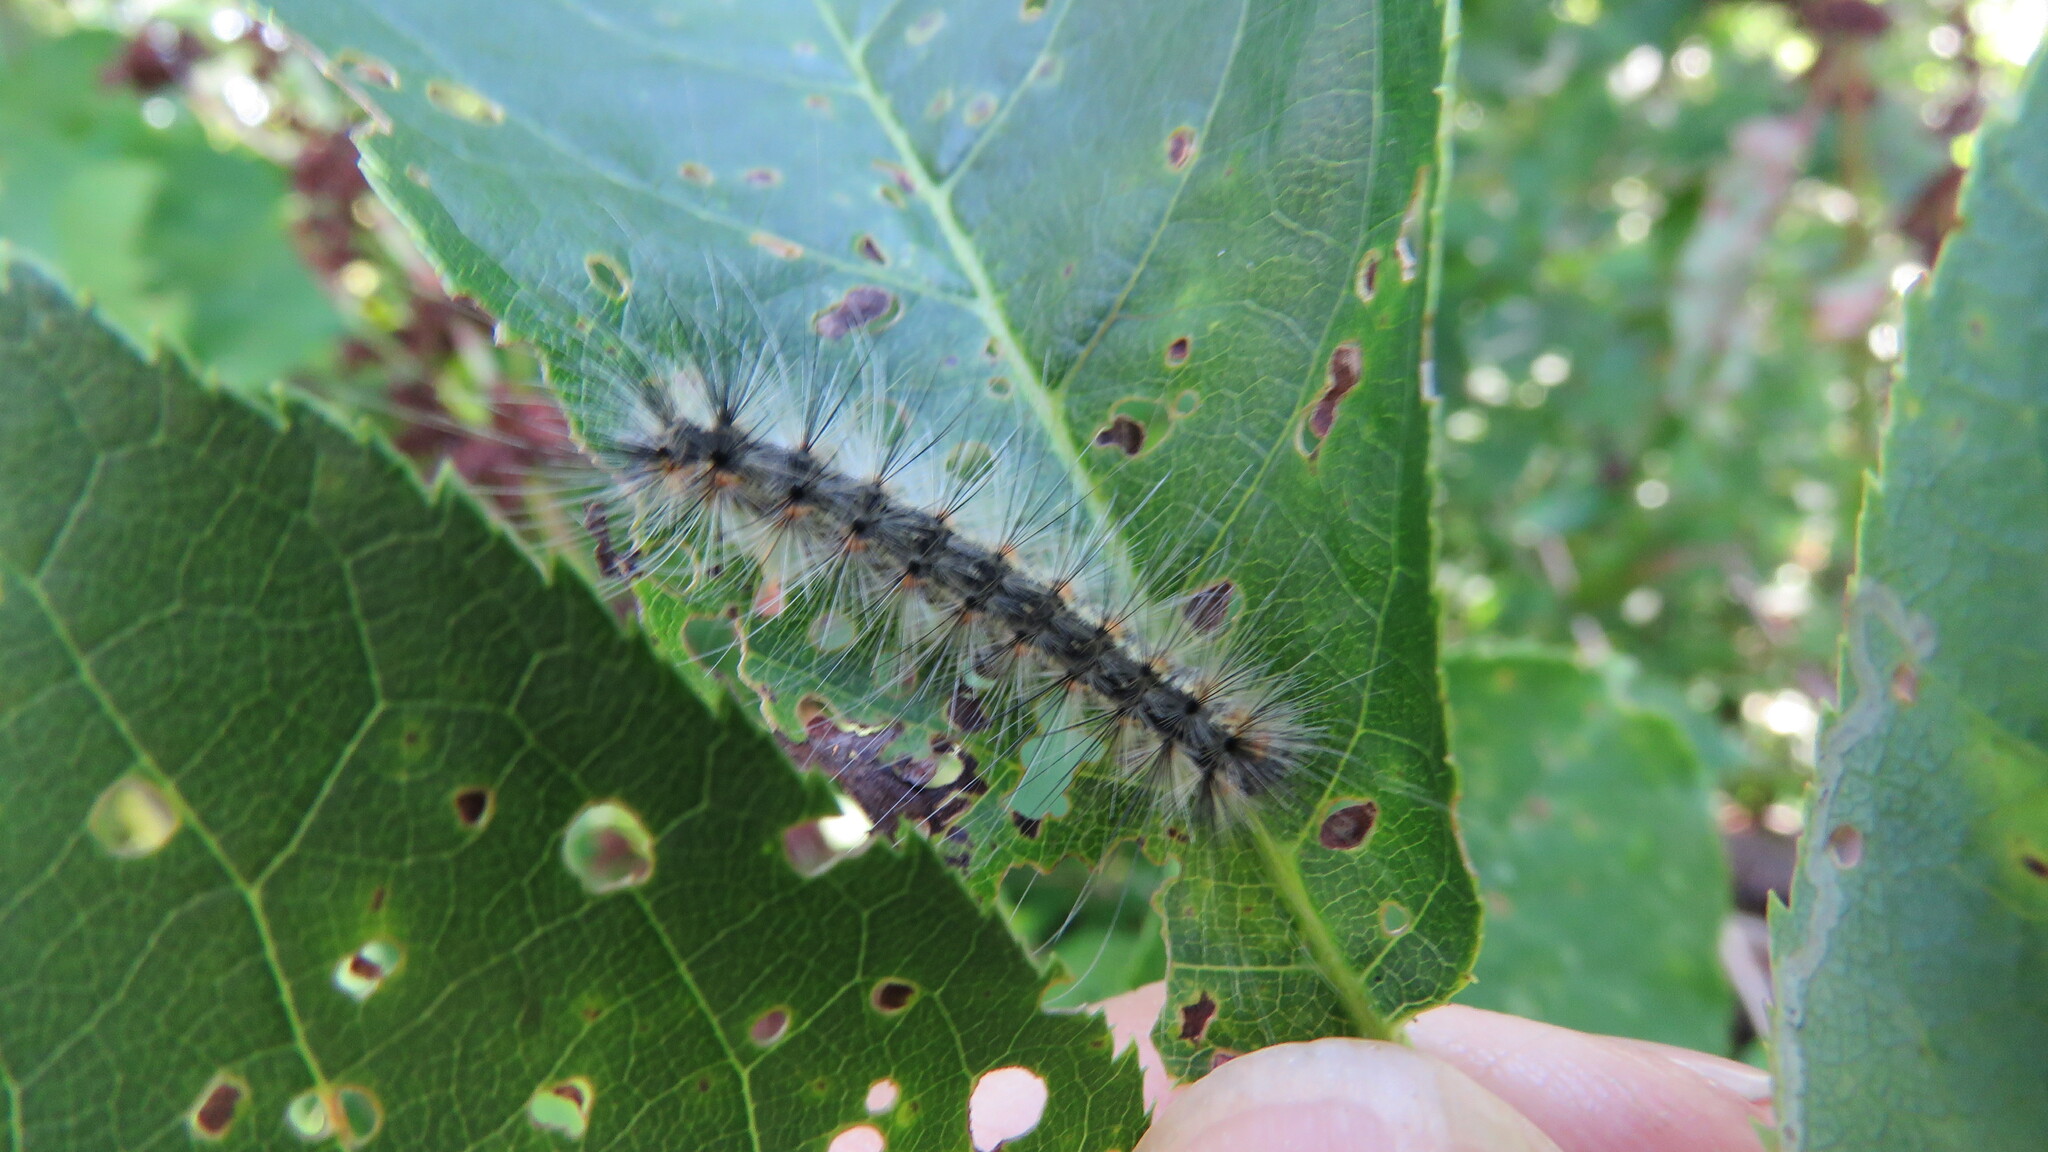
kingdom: Animalia
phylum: Arthropoda
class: Insecta
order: Lepidoptera
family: Erebidae
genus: Hyphantria
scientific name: Hyphantria cunea
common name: American white moth
